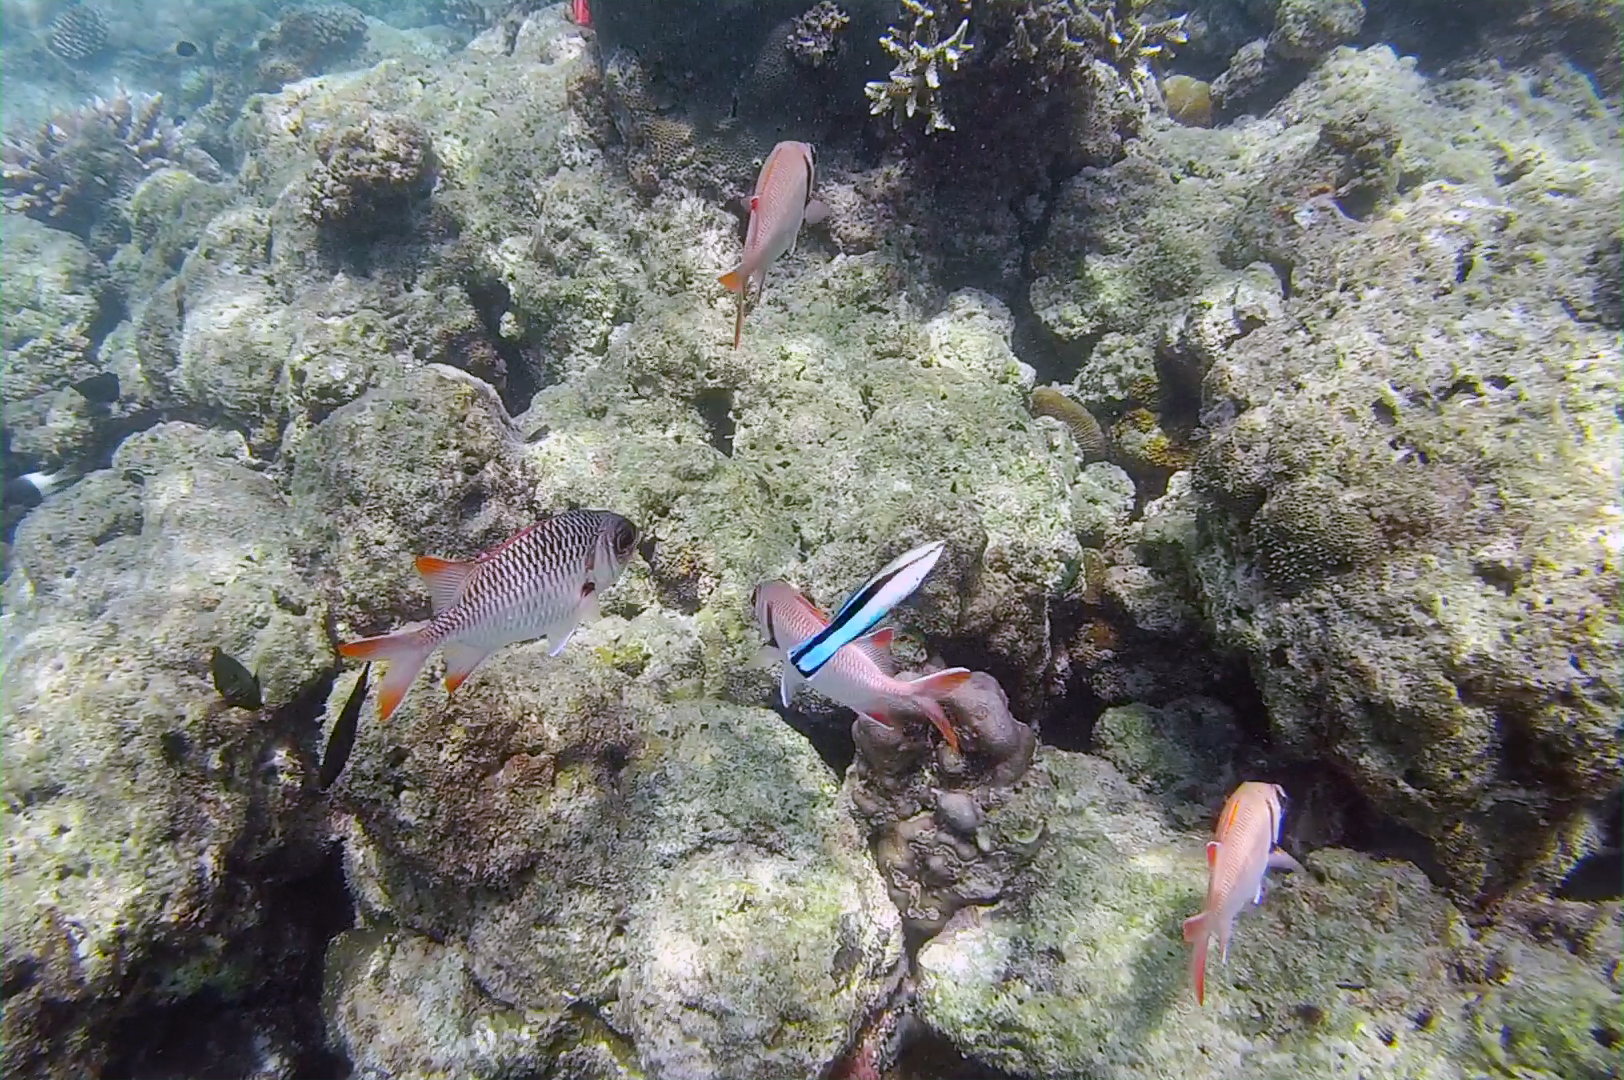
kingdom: Animalia
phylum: Chordata
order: Perciformes
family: Labridae
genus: Labroides
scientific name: Labroides dimidiatus
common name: Blue diesel wrasse
